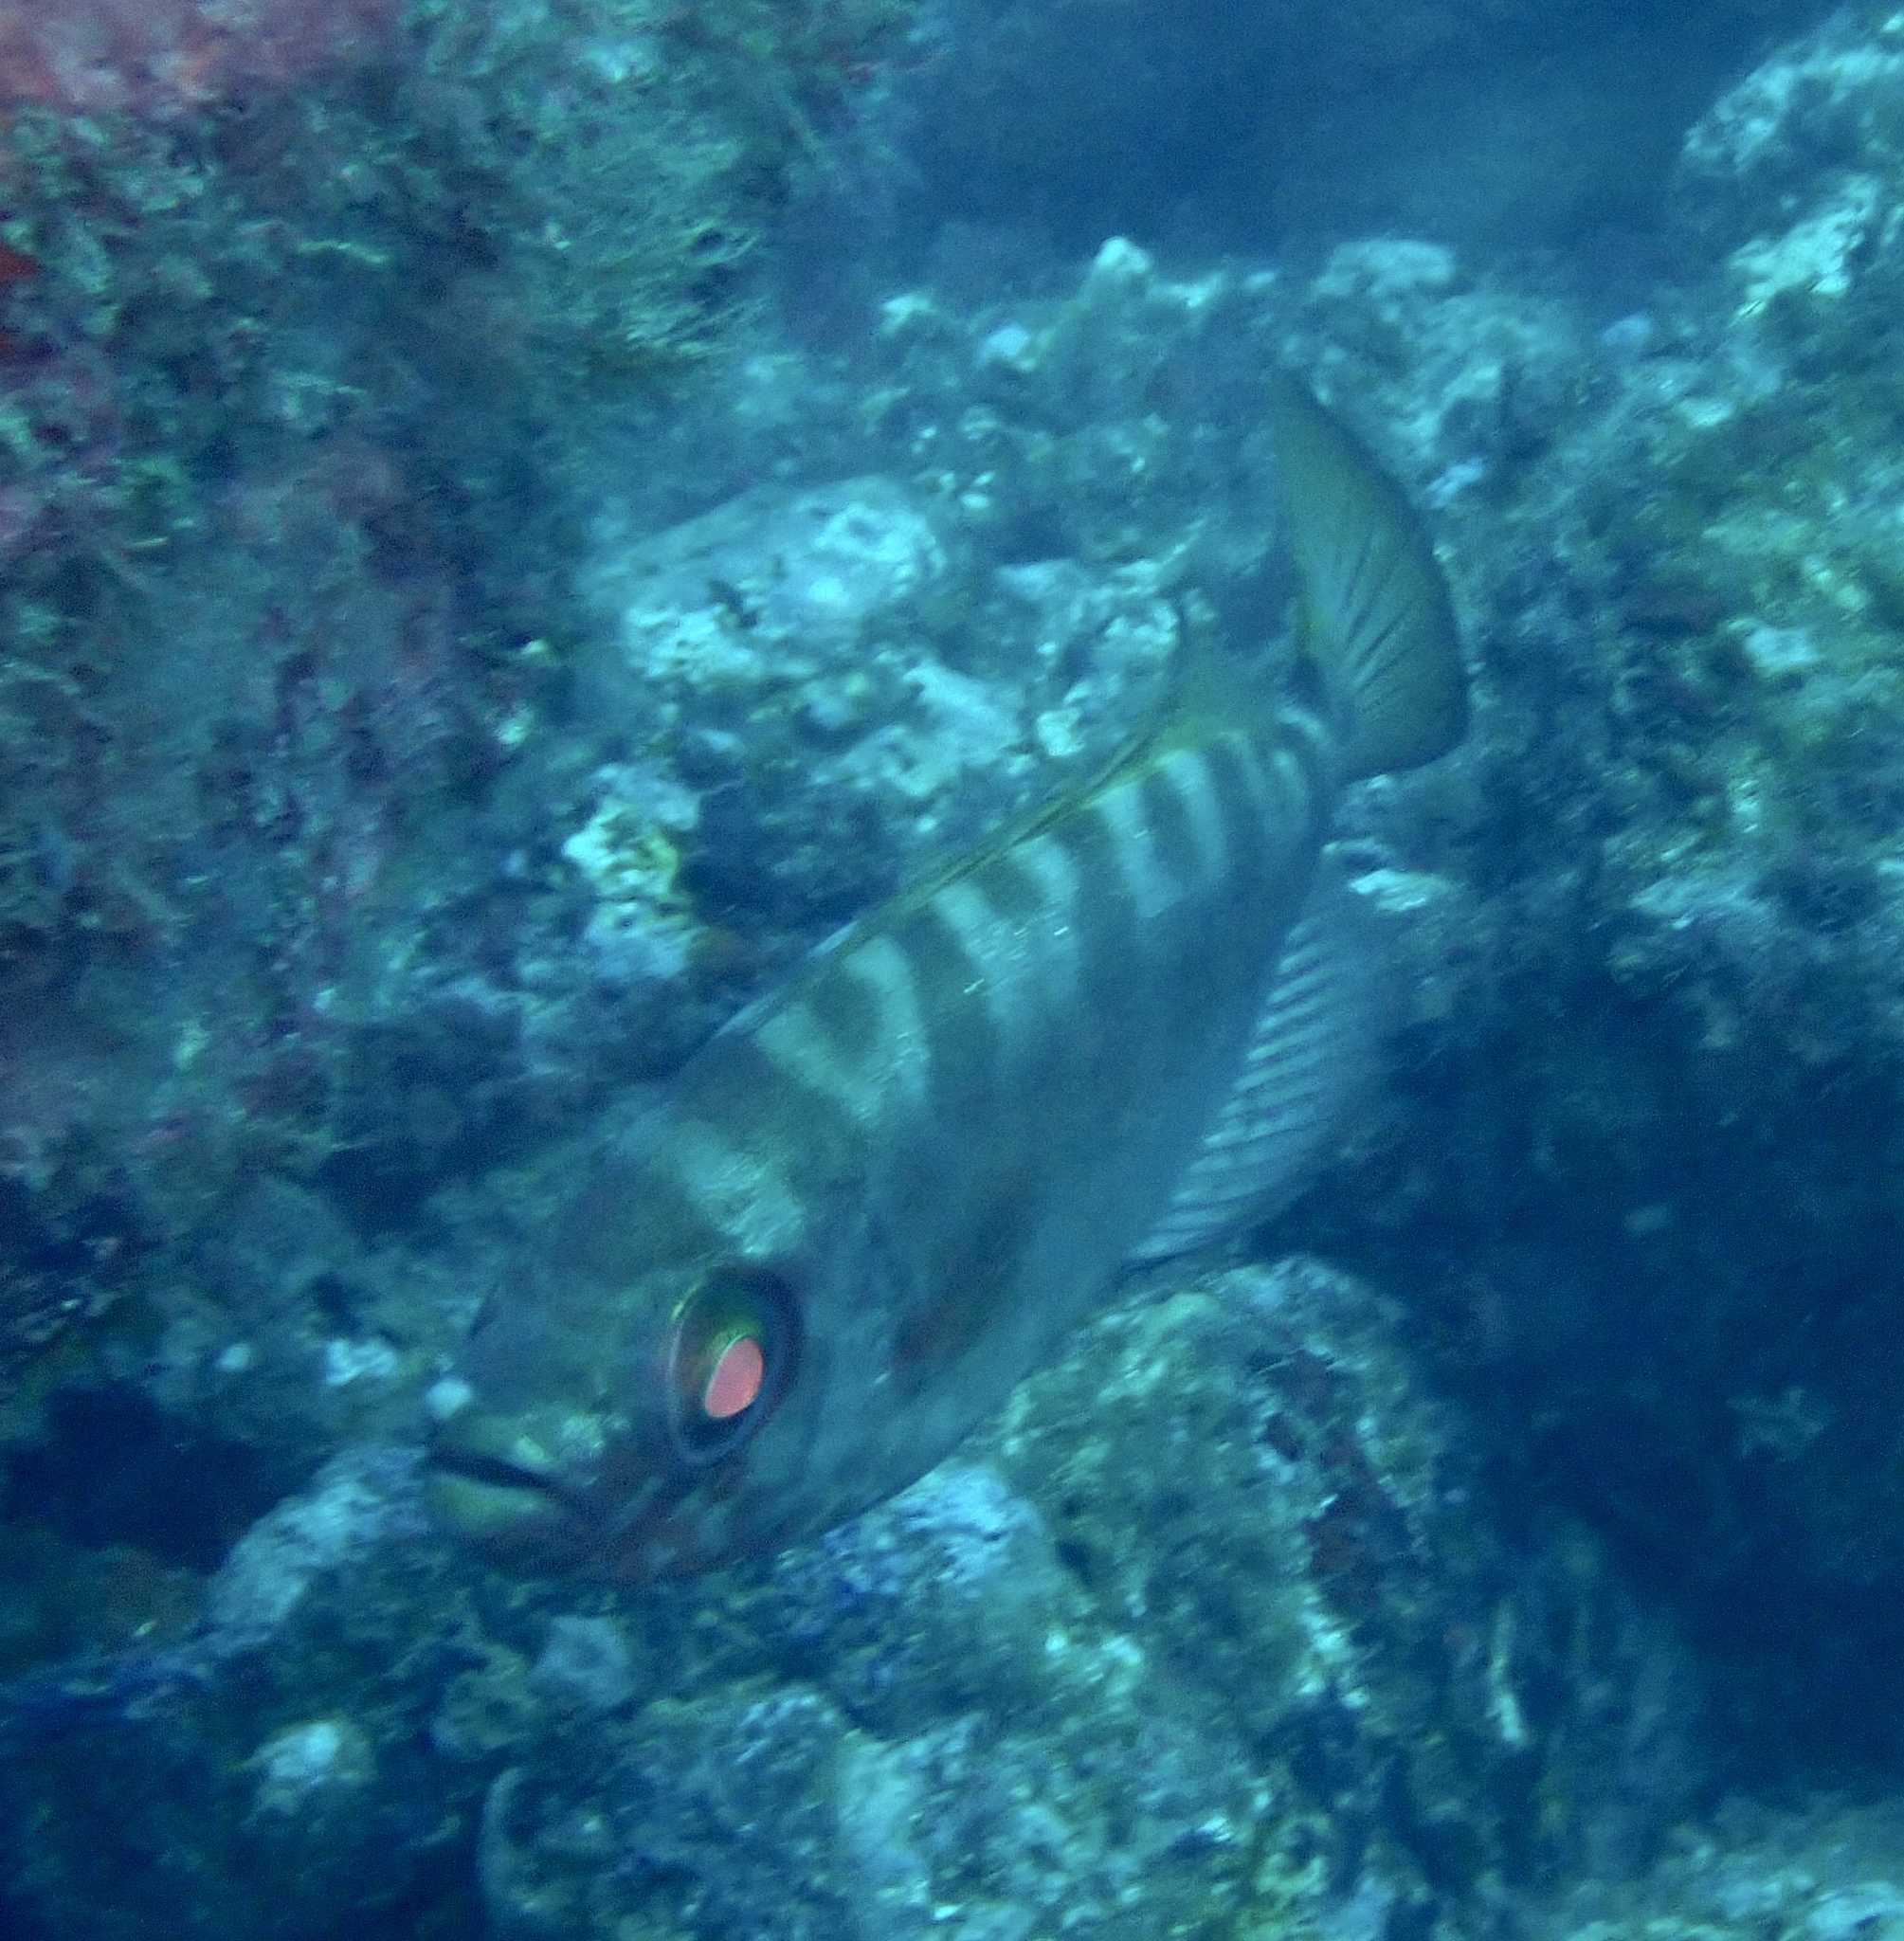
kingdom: Animalia
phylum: Chordata
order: Perciformes
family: Priacanthidae
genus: Heteropriacanthus
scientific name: Heteropriacanthus fulgens
